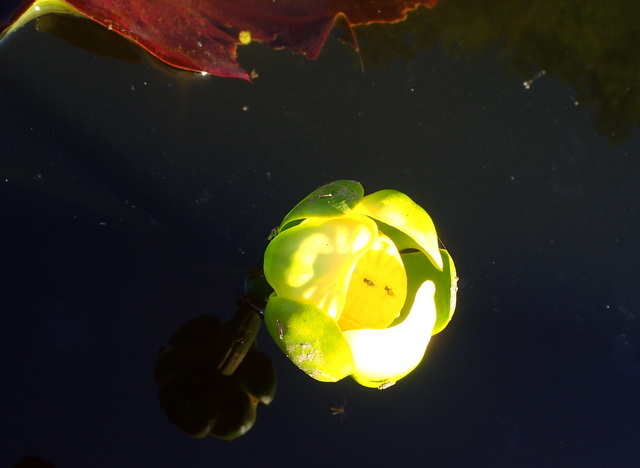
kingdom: Plantae
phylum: Tracheophyta
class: Magnoliopsida
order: Nymphaeales
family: Nymphaeaceae
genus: Nuphar
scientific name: Nuphar advena
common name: Spatter-dock
